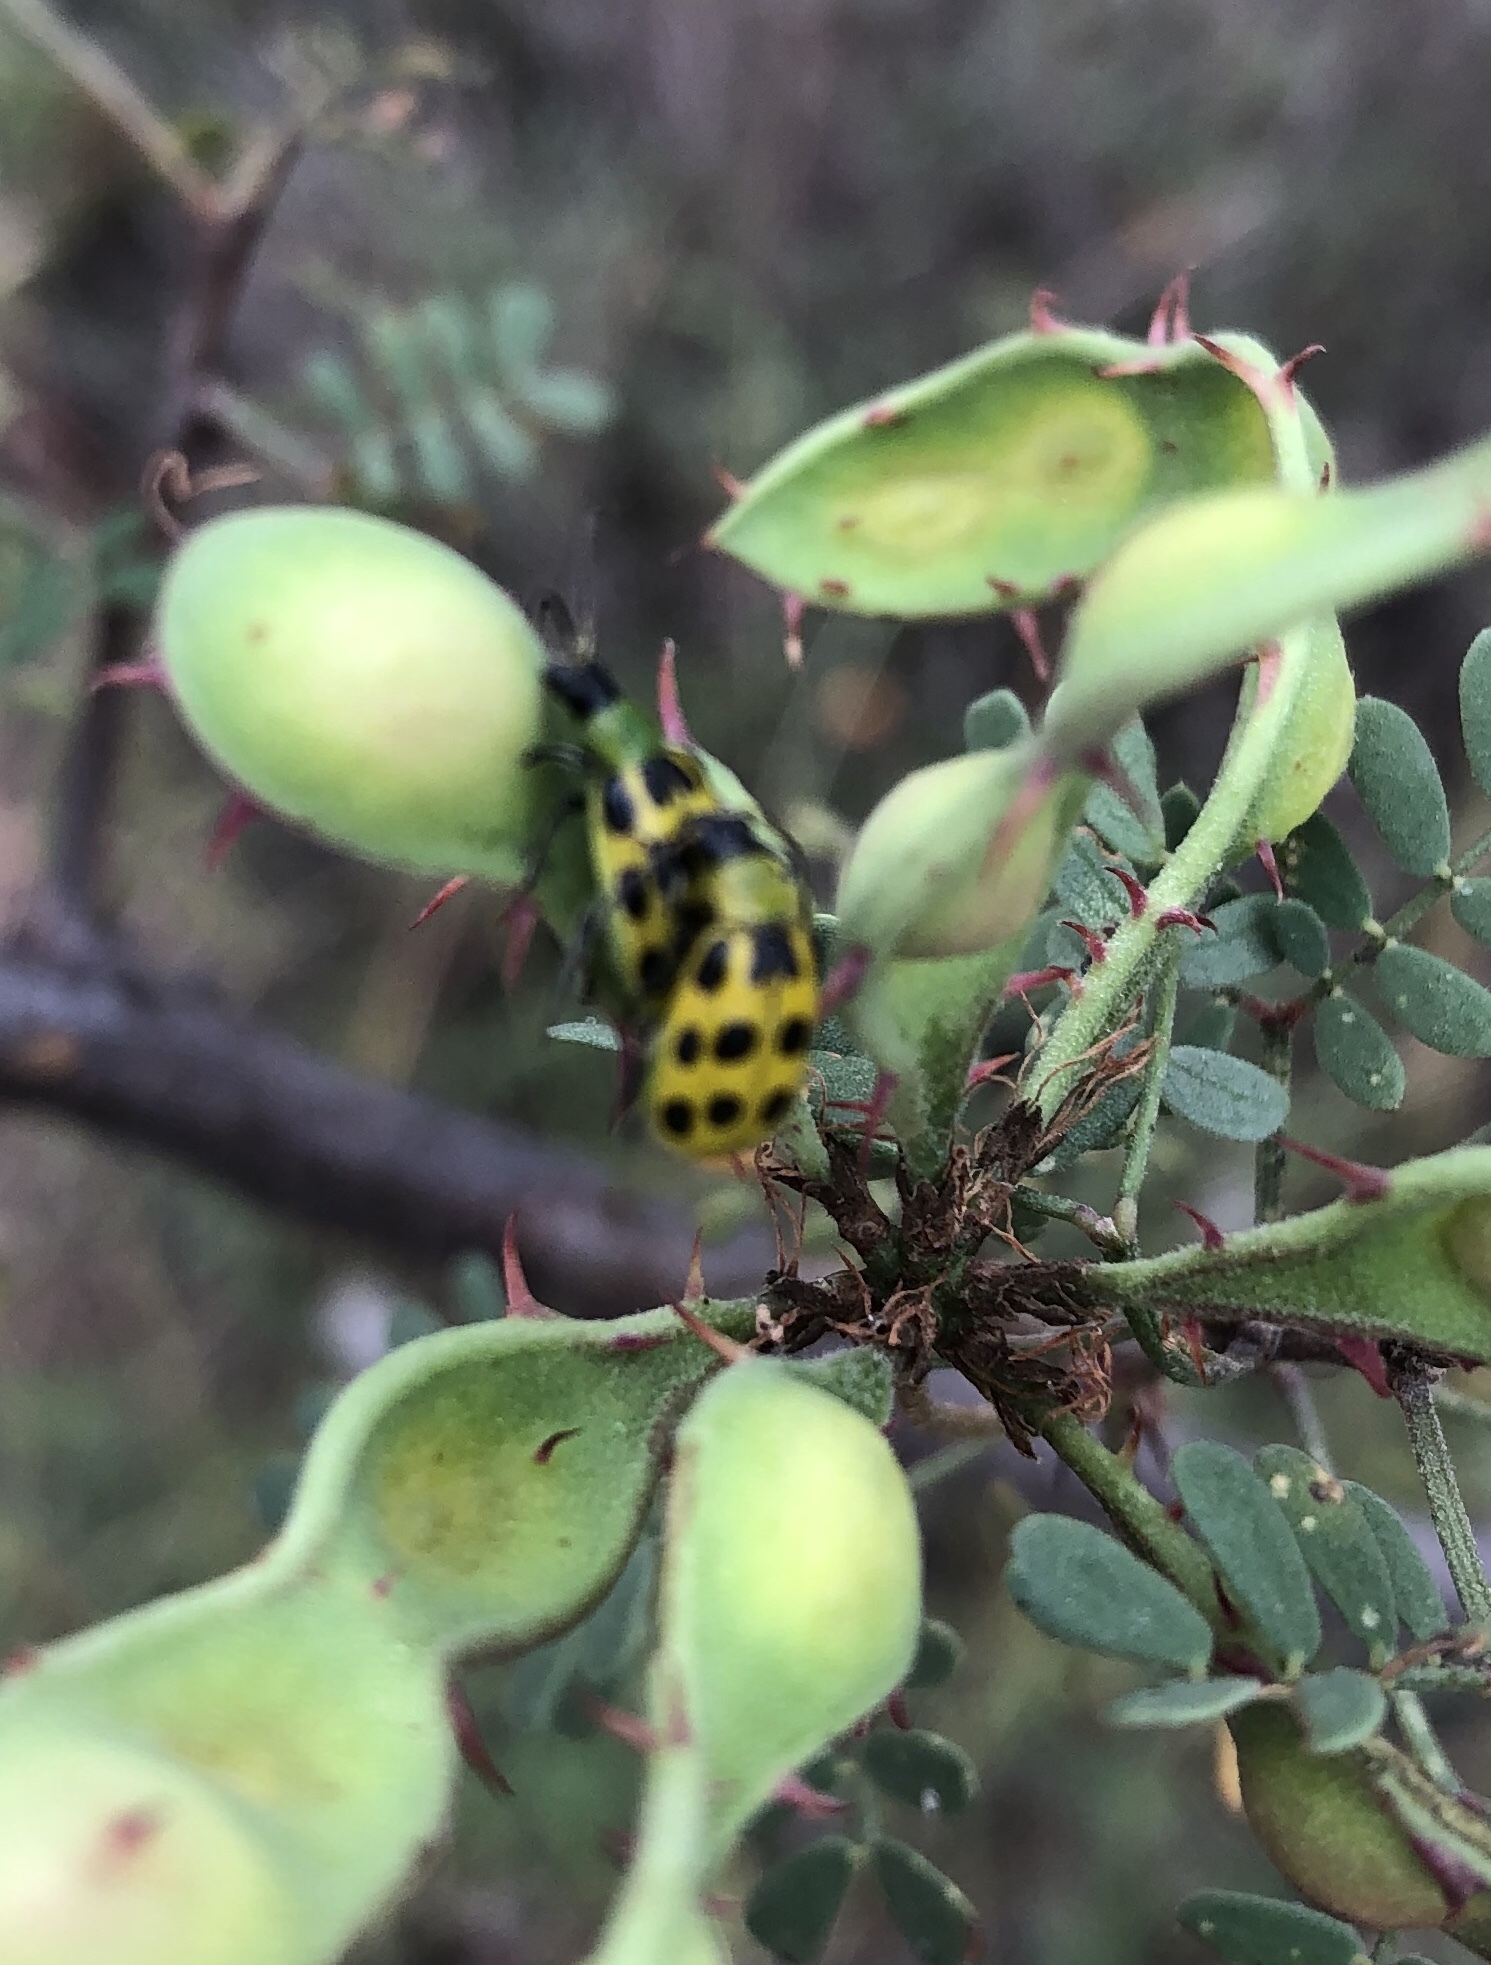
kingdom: Animalia
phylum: Arthropoda
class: Insecta
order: Coleoptera
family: Chrysomelidae
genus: Diabrotica
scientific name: Diabrotica undecimpunctata
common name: Spotted cucumber beetle
